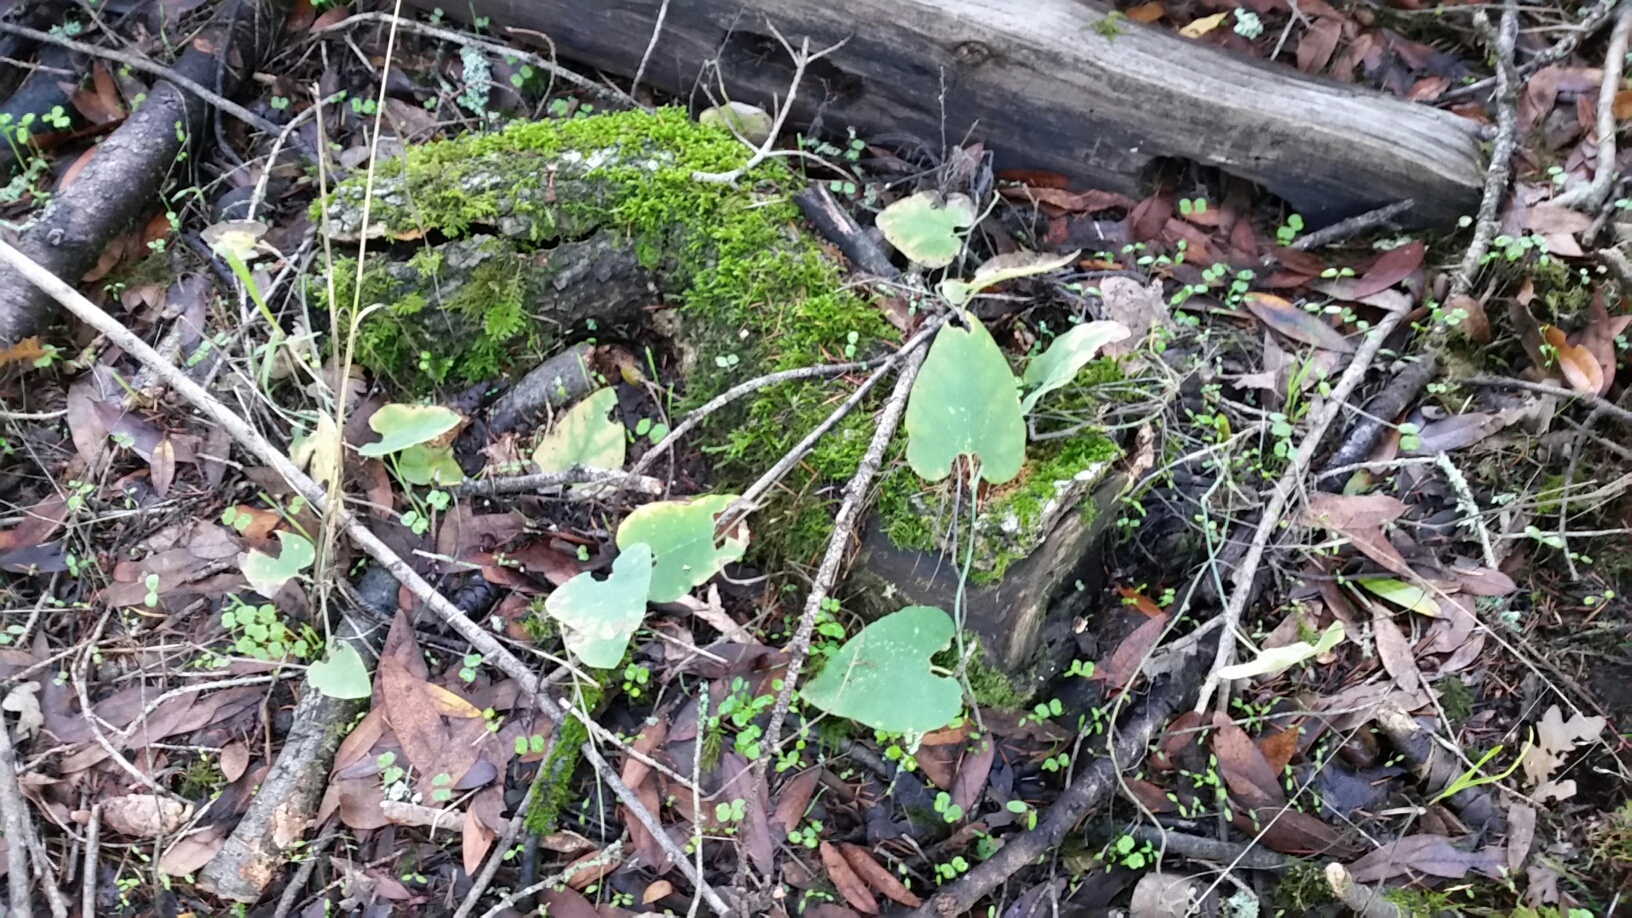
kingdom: Plantae
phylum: Tracheophyta
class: Magnoliopsida
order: Piperales
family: Aristolochiaceae
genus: Isotrema
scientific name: Isotrema californicum
